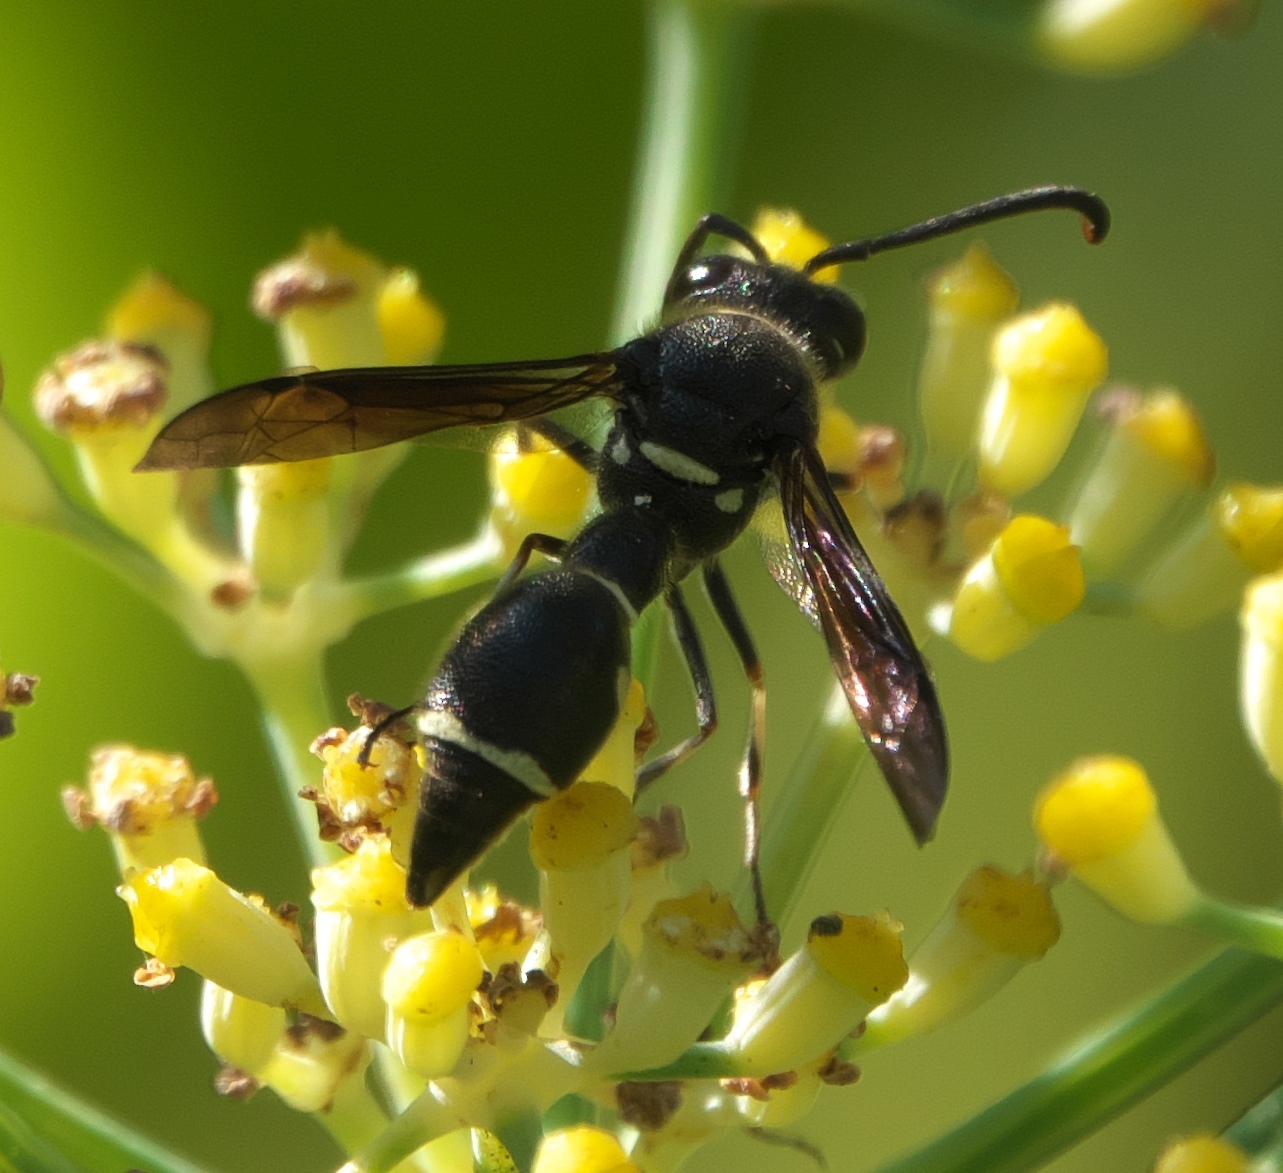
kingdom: Animalia
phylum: Arthropoda
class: Insecta
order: Hymenoptera
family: Vespidae
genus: Eumenes
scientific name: Eumenes fraternus
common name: Fraternal potter wasp
